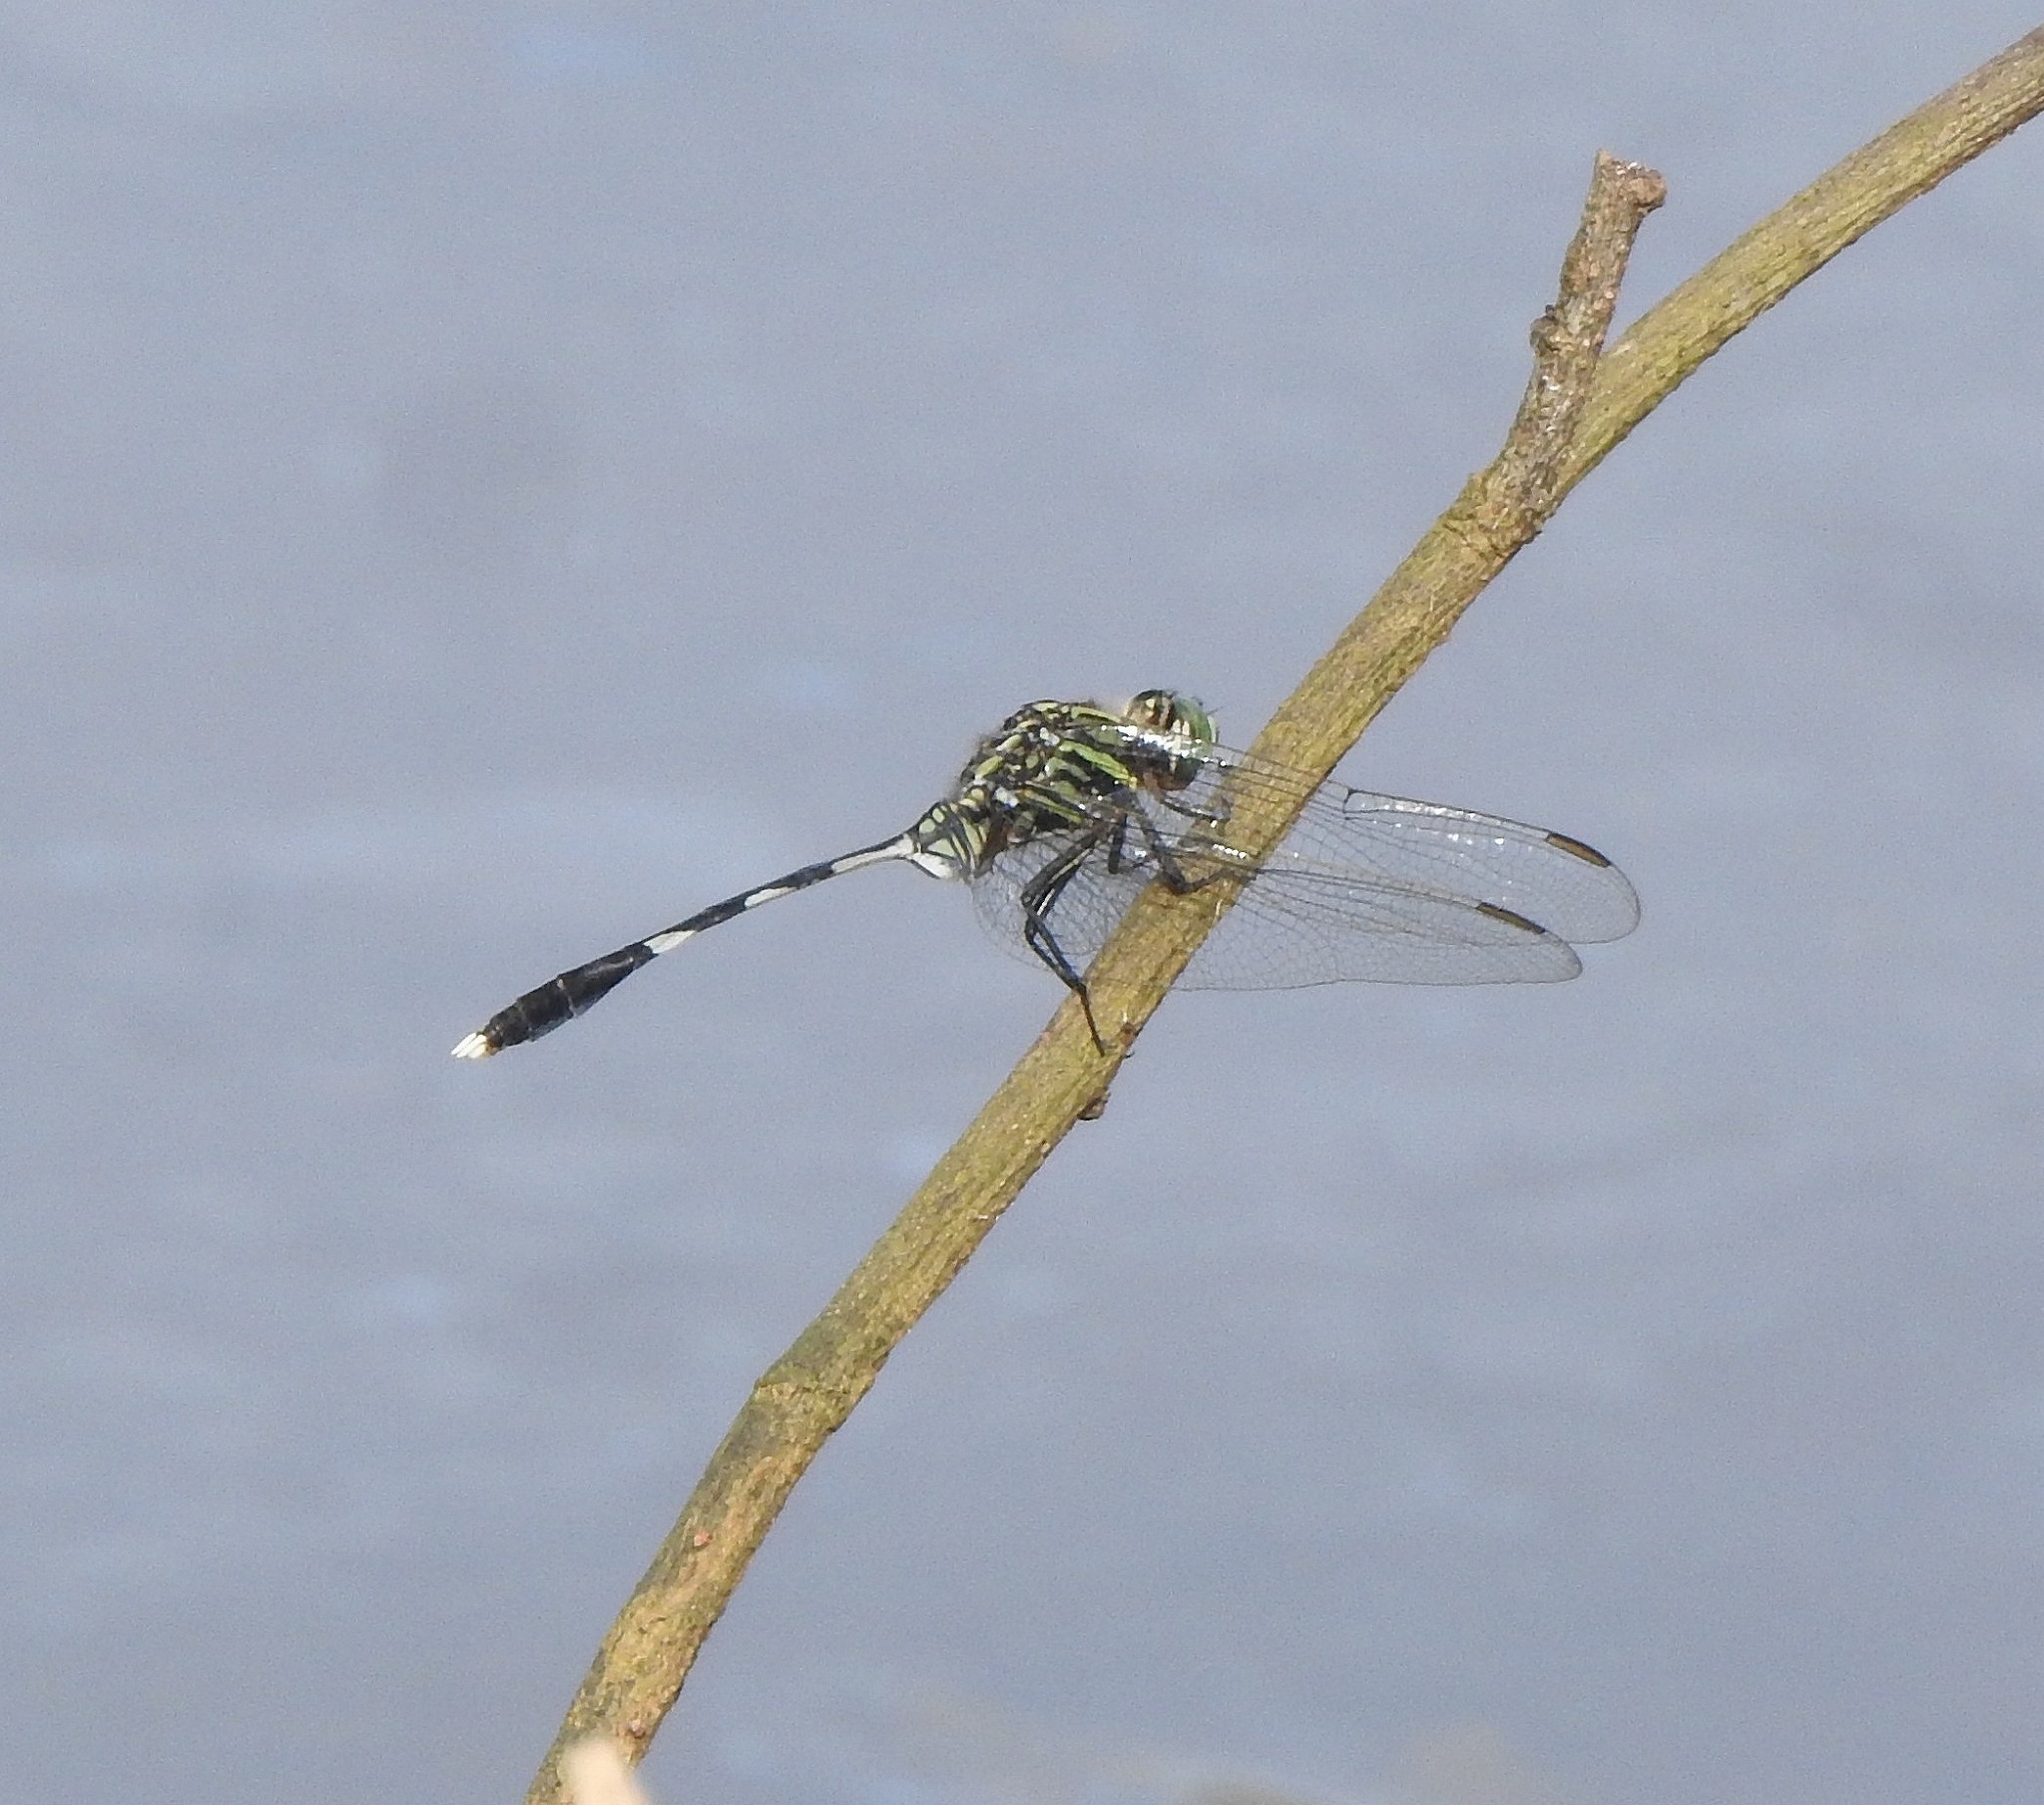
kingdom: Animalia
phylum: Arthropoda
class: Insecta
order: Odonata
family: Libellulidae
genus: Orthetrum
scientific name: Orthetrum sabina
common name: Slender skimmer
